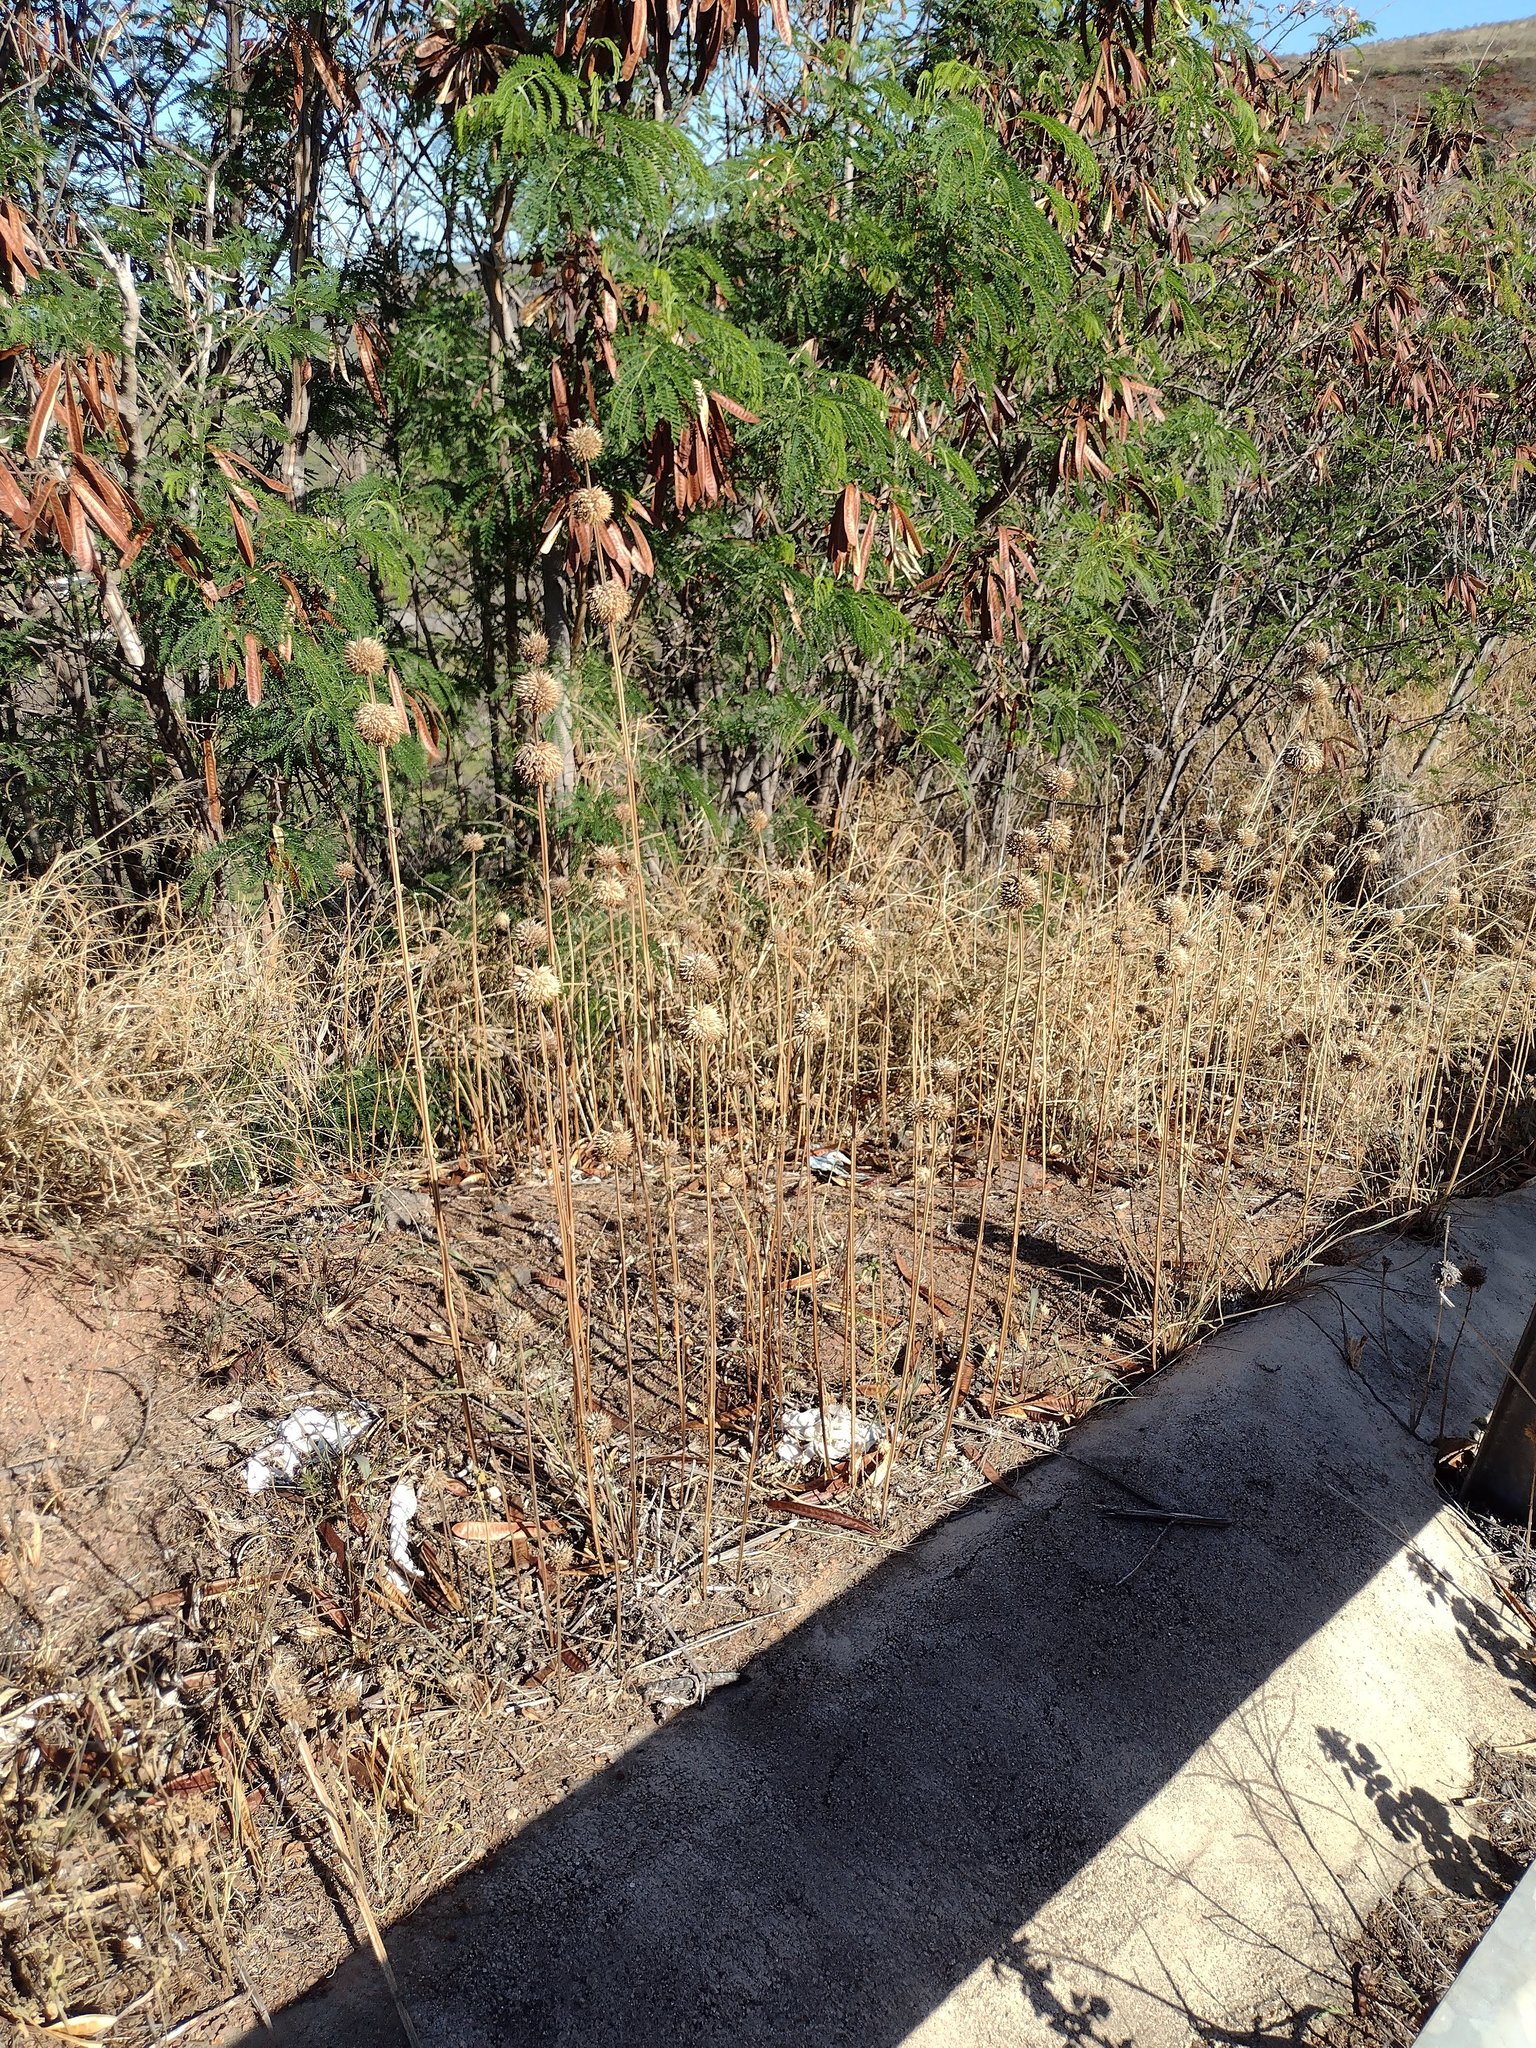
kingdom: Plantae
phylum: Tracheophyta
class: Magnoliopsida
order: Lamiales
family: Lamiaceae
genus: Leonotis
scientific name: Leonotis nepetifolia
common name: Christmas candlestick
